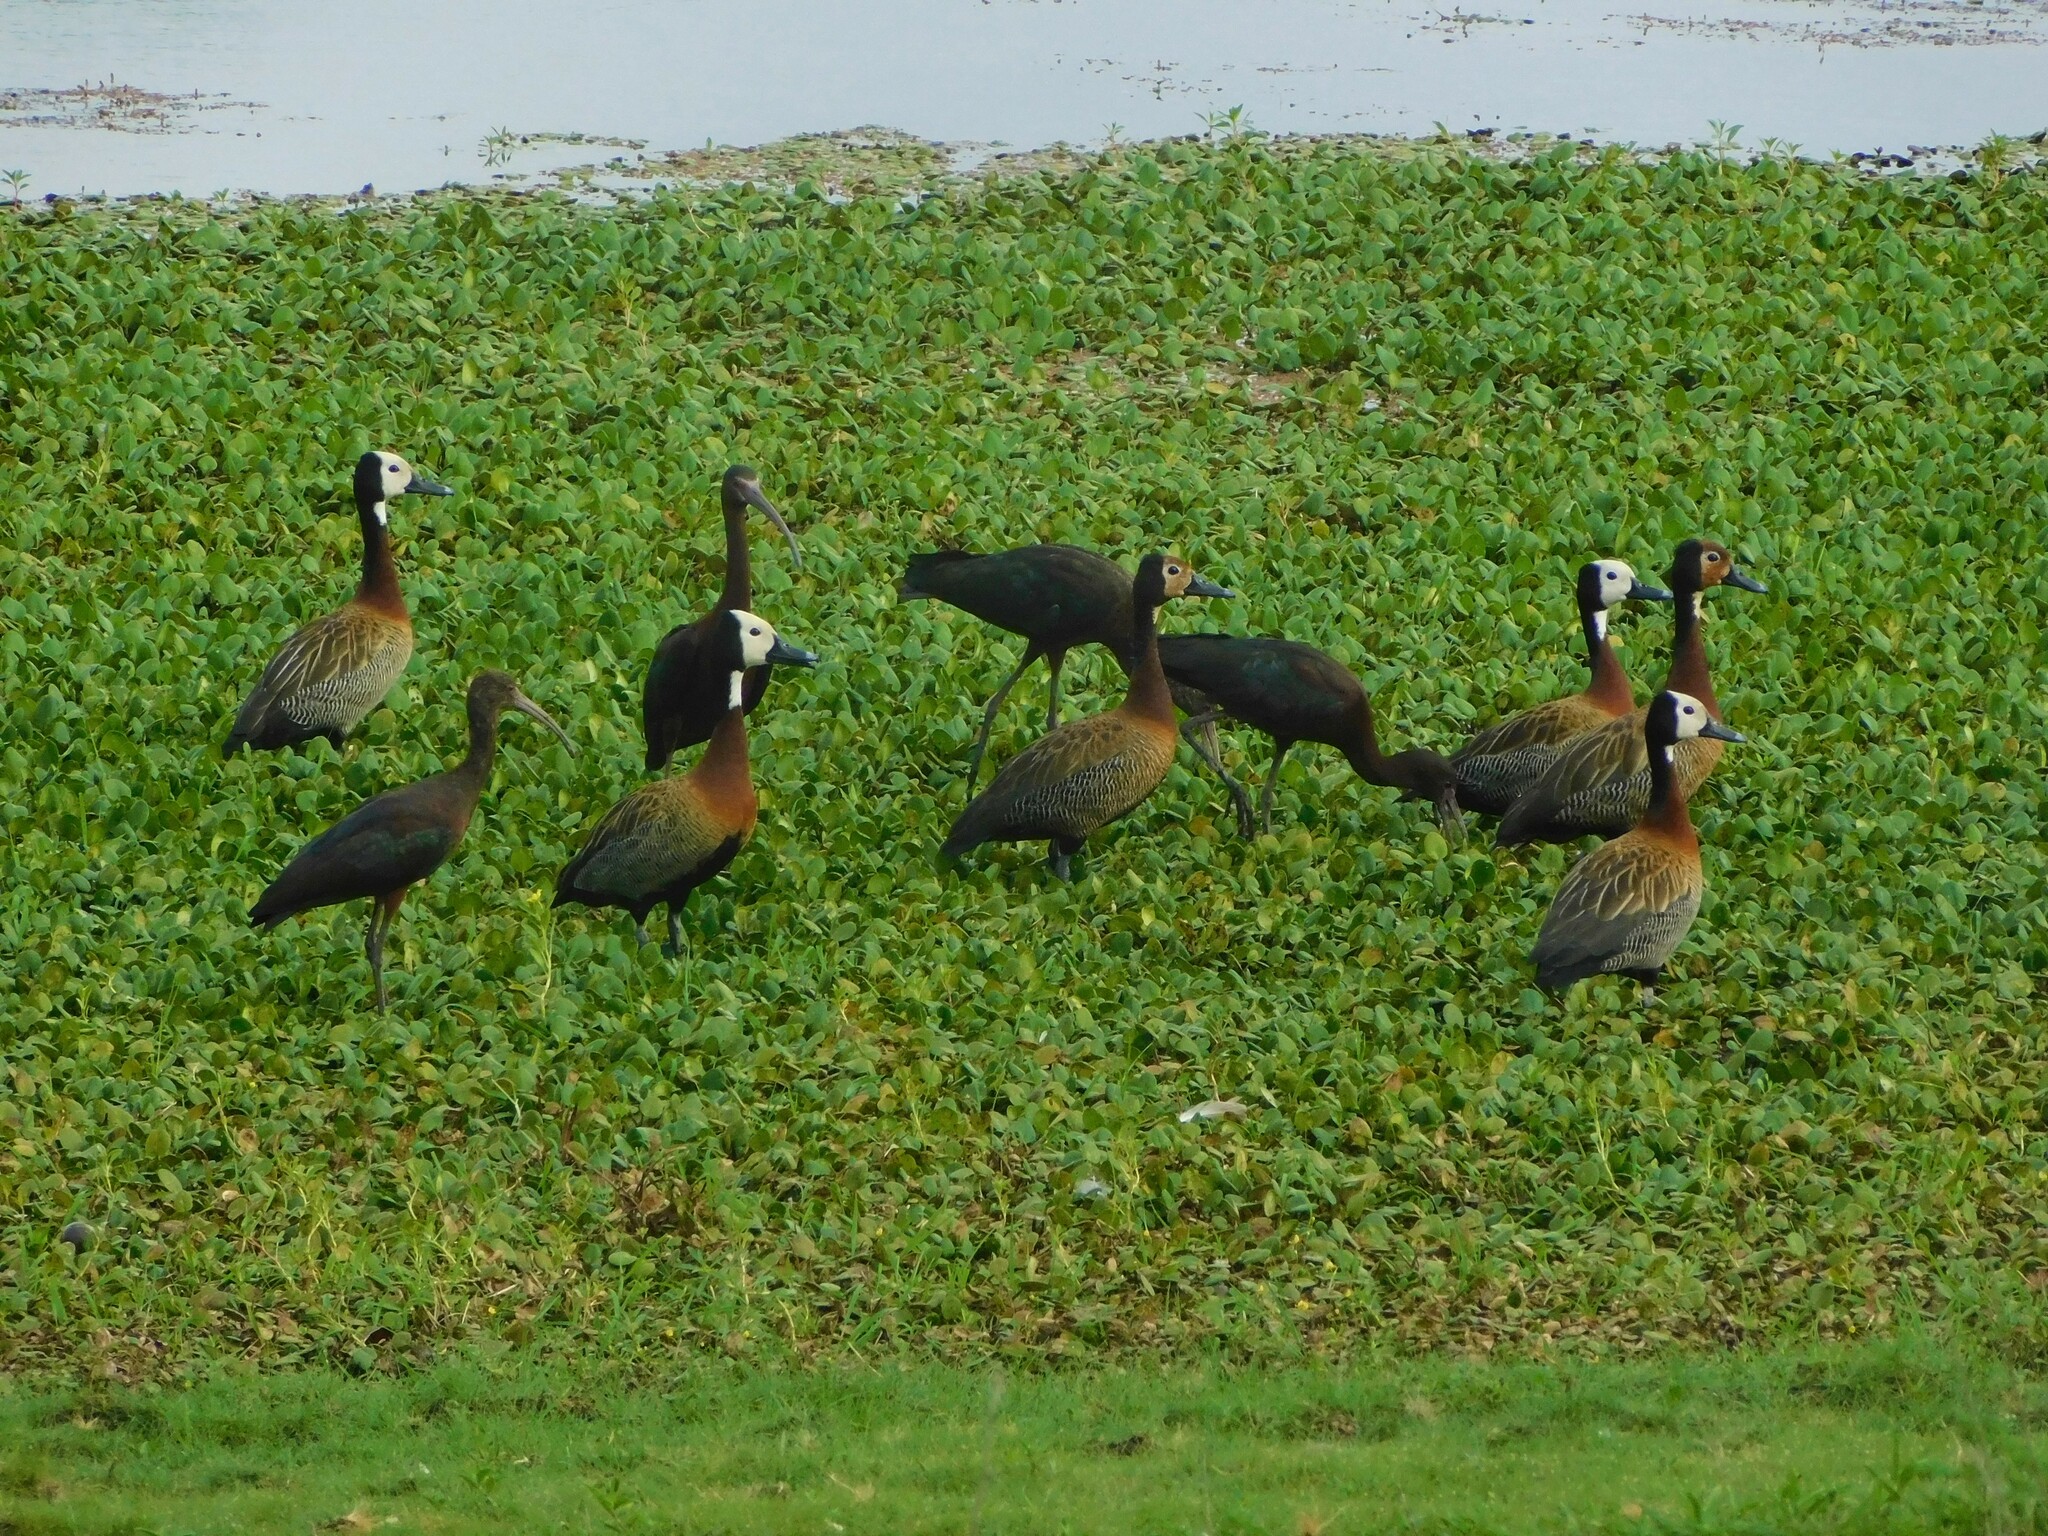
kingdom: Animalia
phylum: Chordata
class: Aves
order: Pelecaniformes
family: Threskiornithidae
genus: Plegadis
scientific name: Plegadis chihi
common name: White-faced ibis
